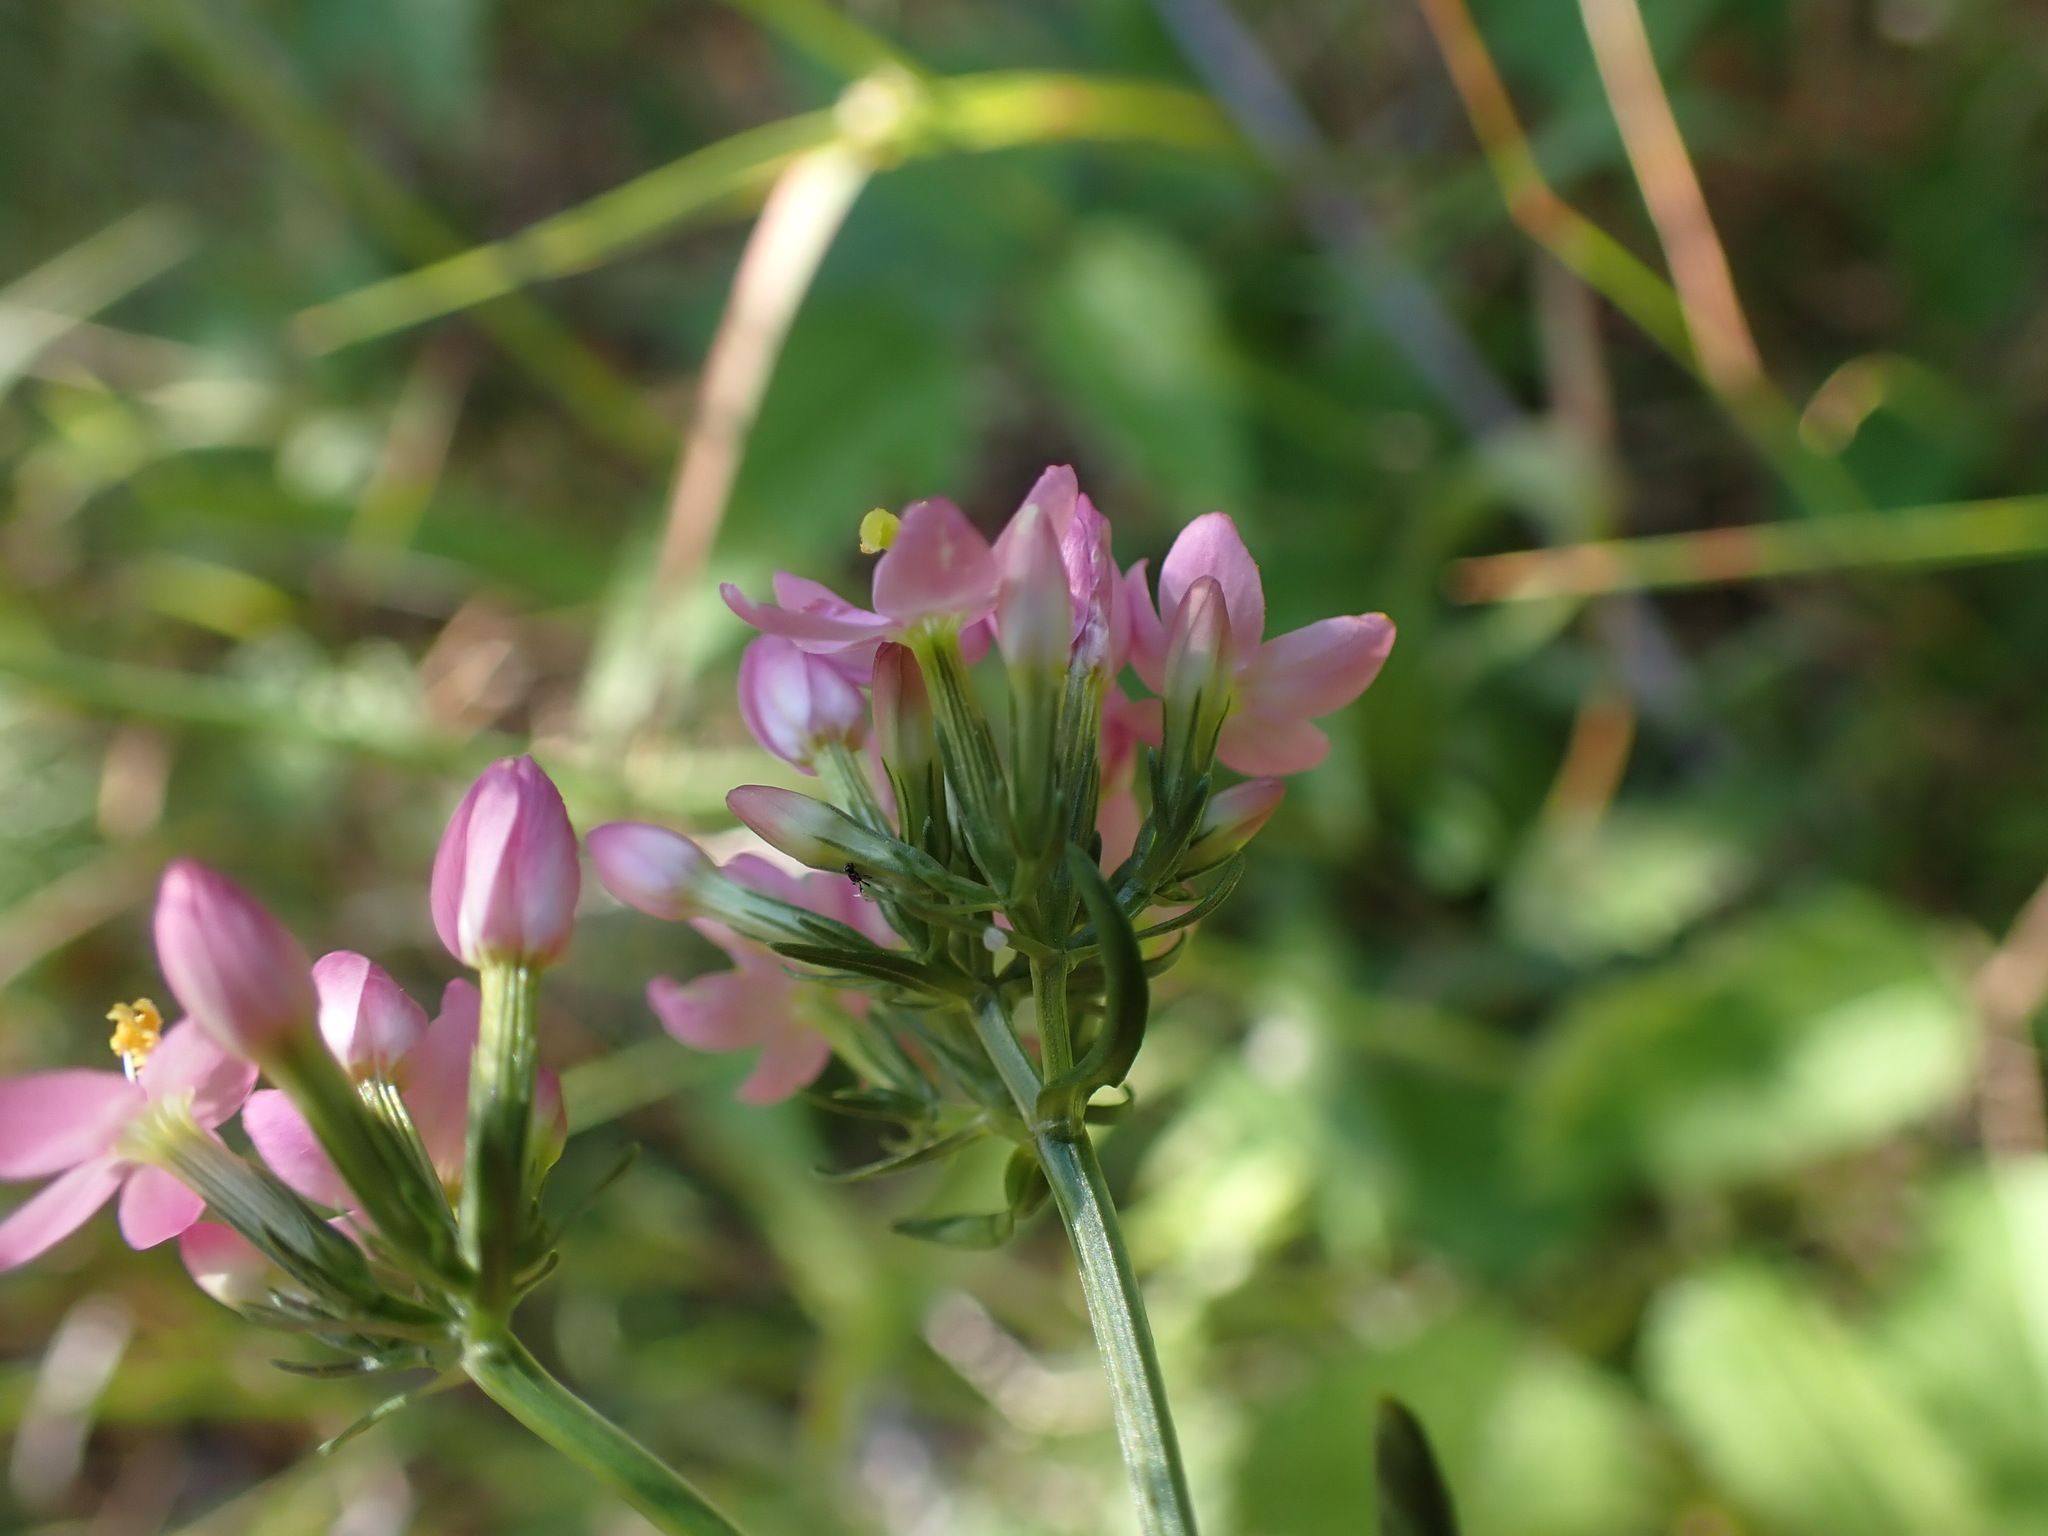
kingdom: Plantae
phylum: Tracheophyta
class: Magnoliopsida
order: Gentianales
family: Gentianaceae
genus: Centaurium
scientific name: Centaurium erythraea
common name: Common centaury
